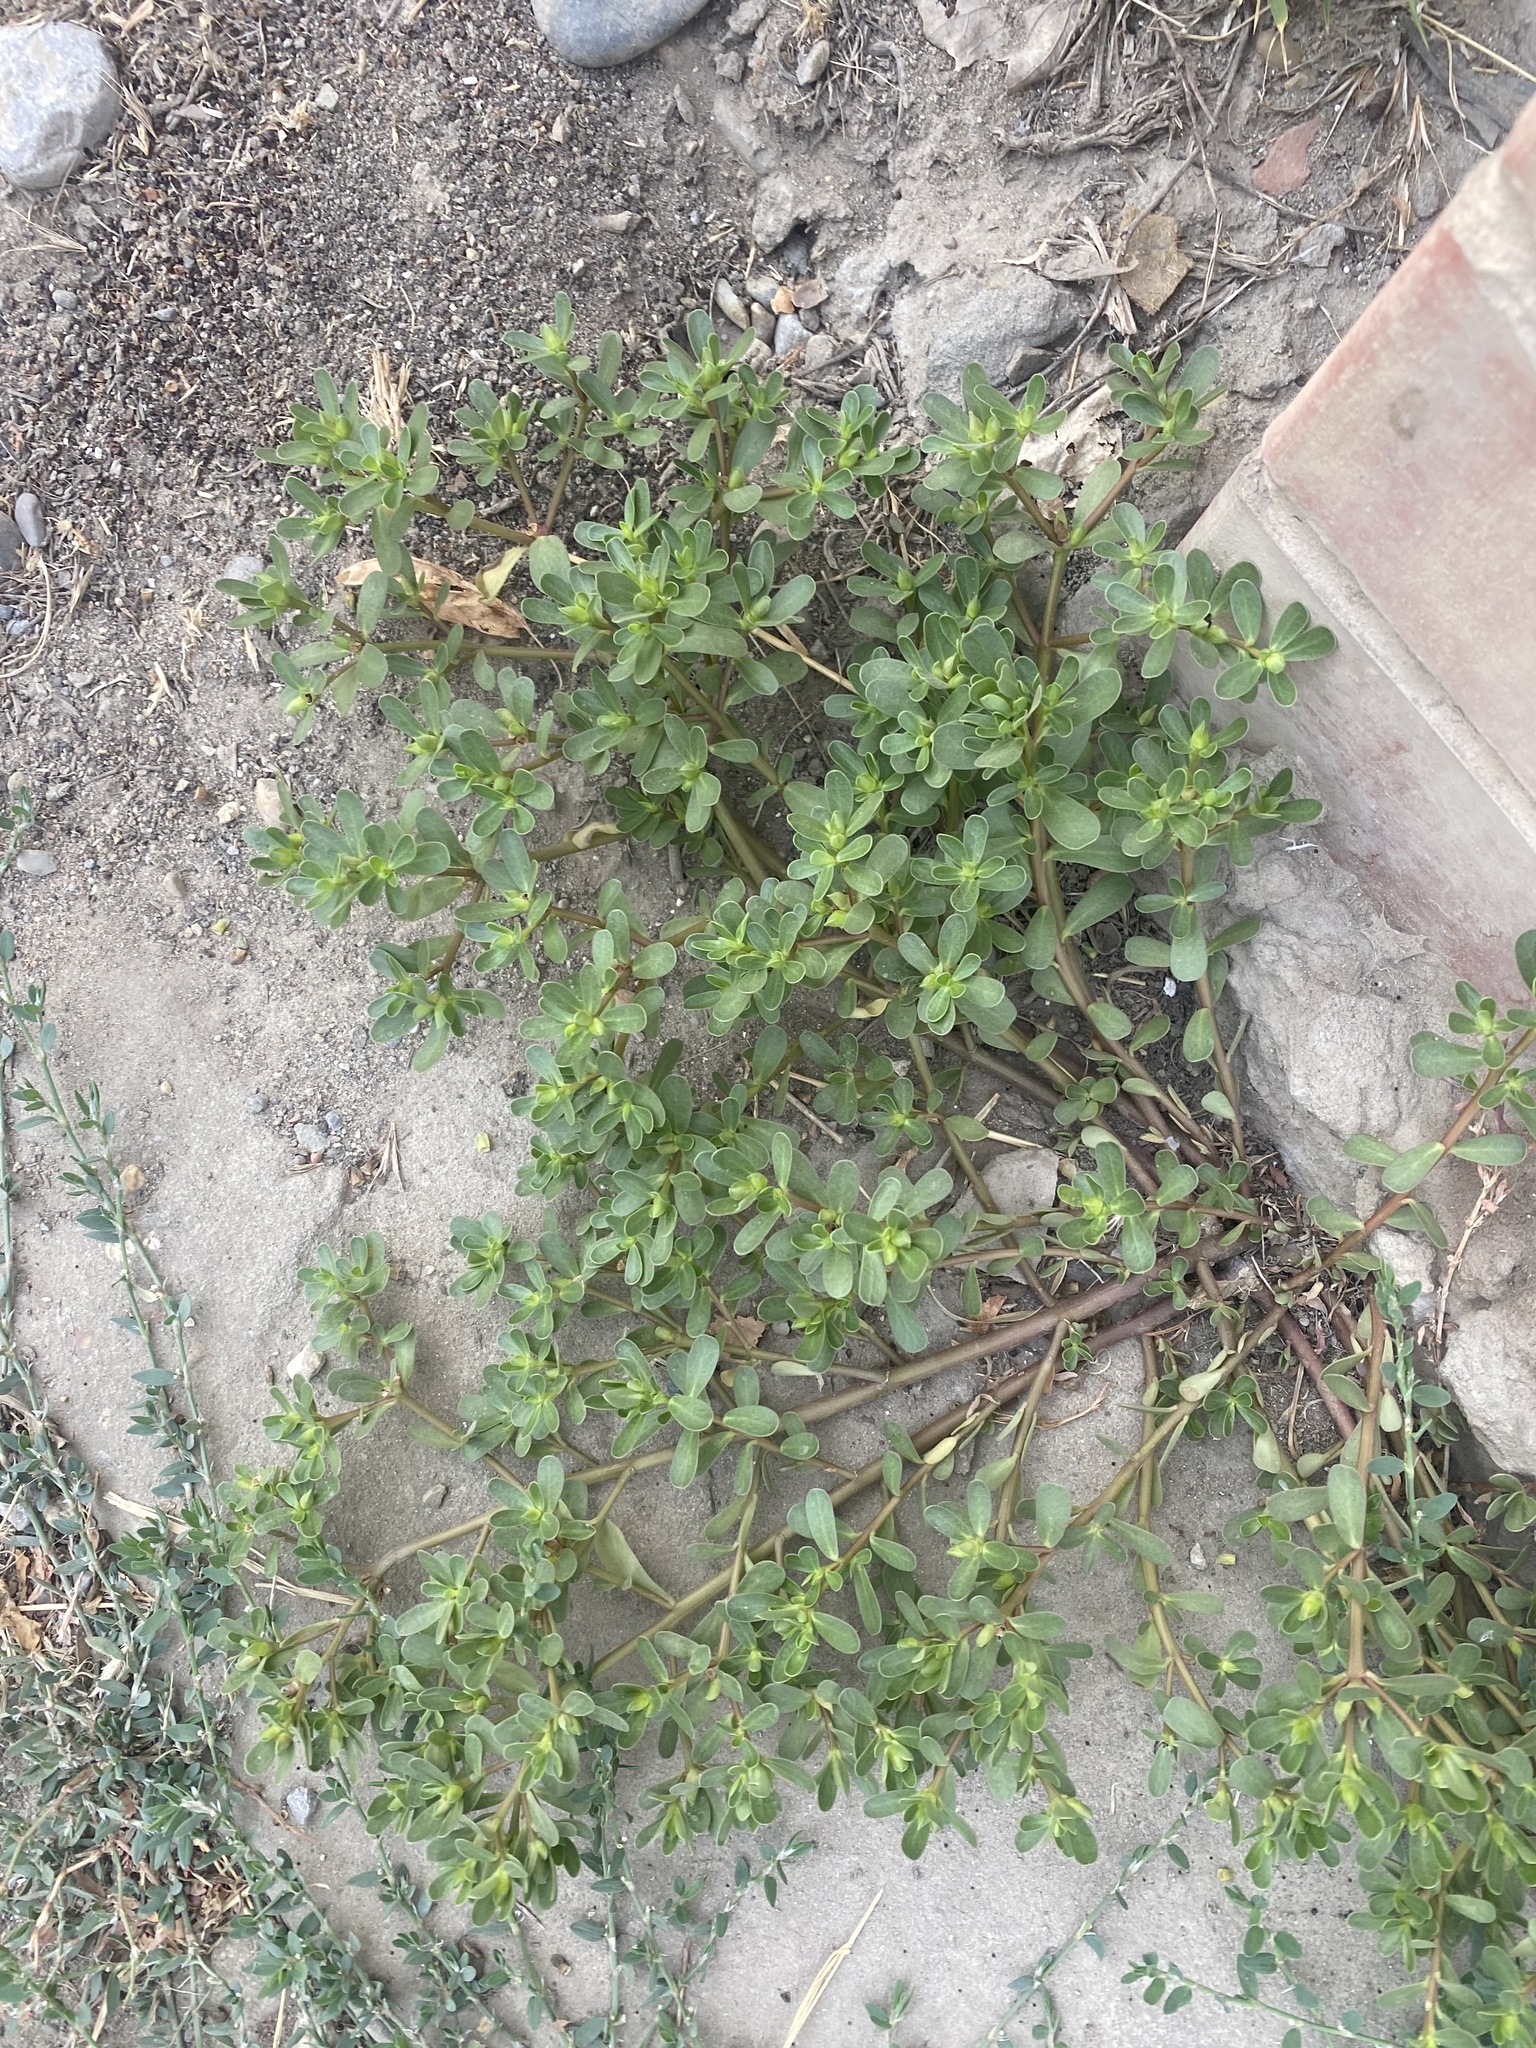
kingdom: Plantae
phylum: Tracheophyta
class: Magnoliopsida
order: Caryophyllales
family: Portulacaceae
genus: Portulaca
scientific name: Portulaca oleracea
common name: Common purslane
